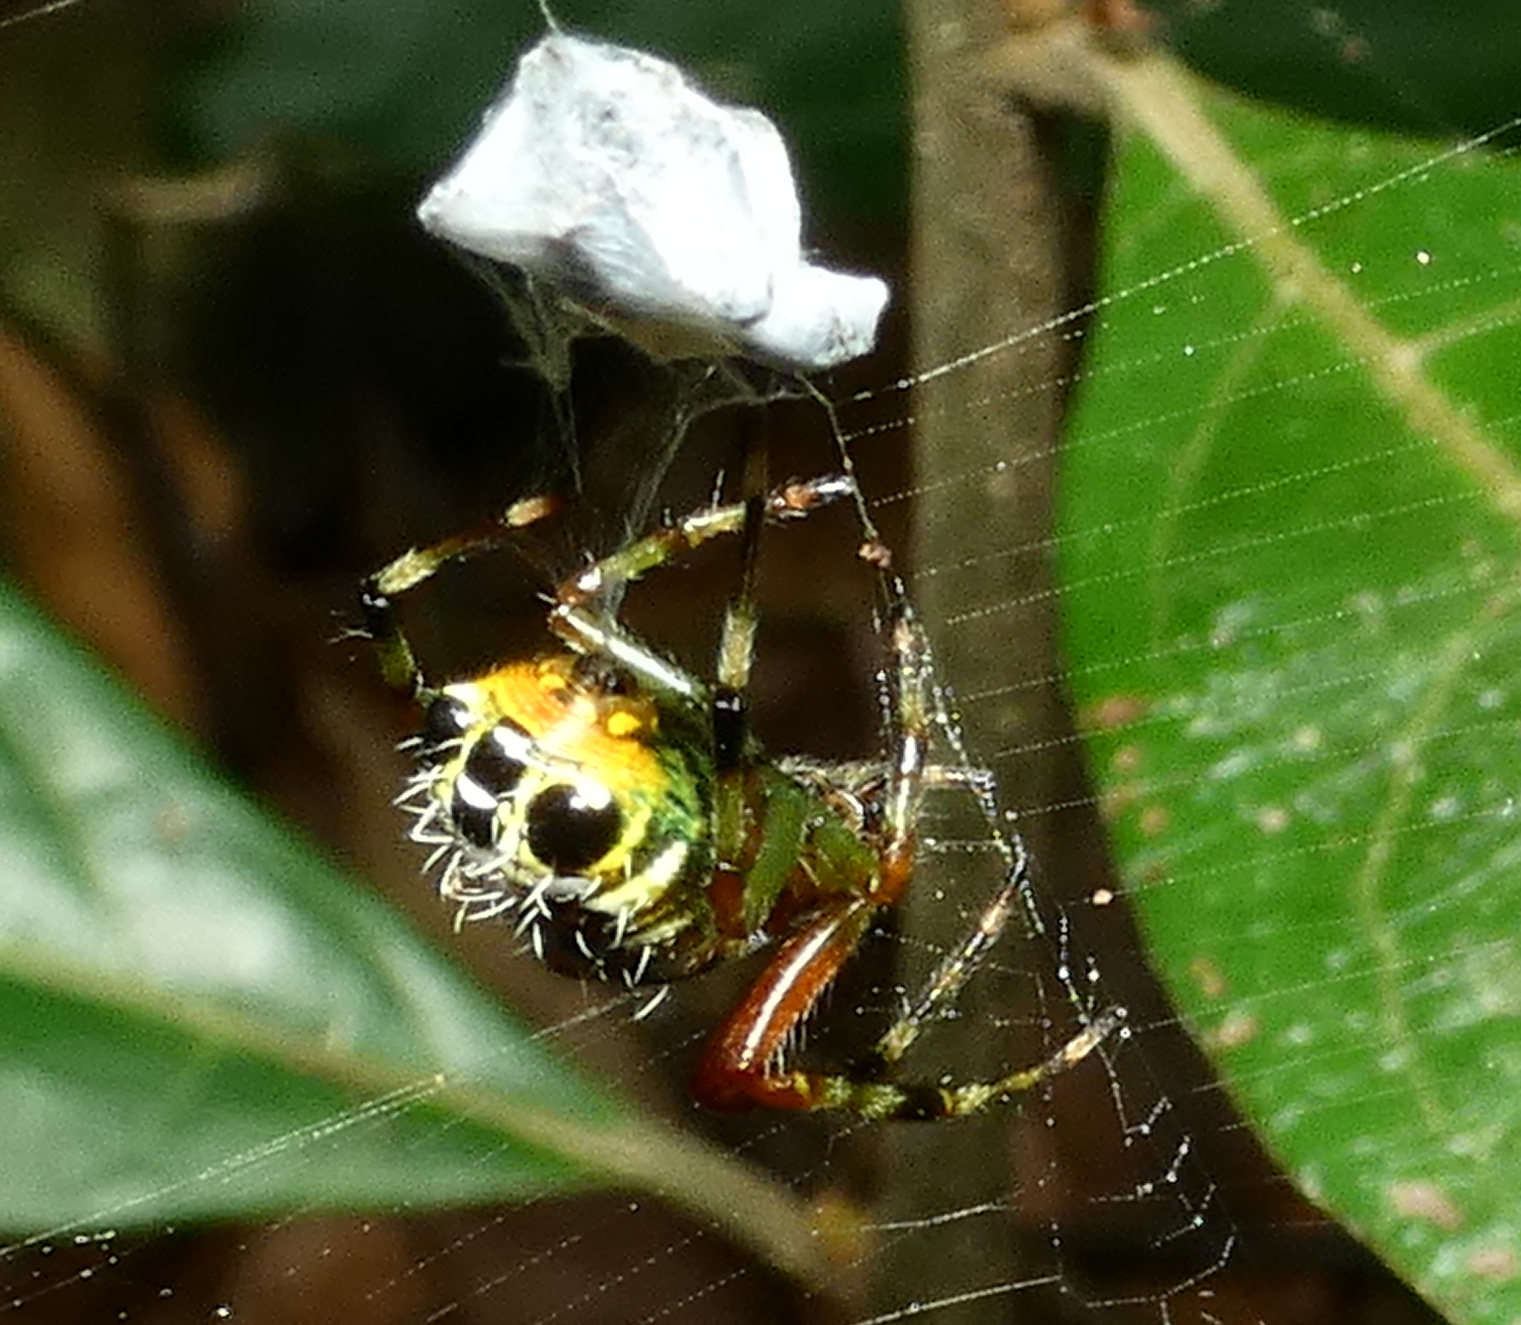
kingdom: Animalia
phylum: Arthropoda
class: Arachnida
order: Araneae
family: Araneidae
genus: Alpaida
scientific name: Alpaida truncata
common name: Orb weavers
